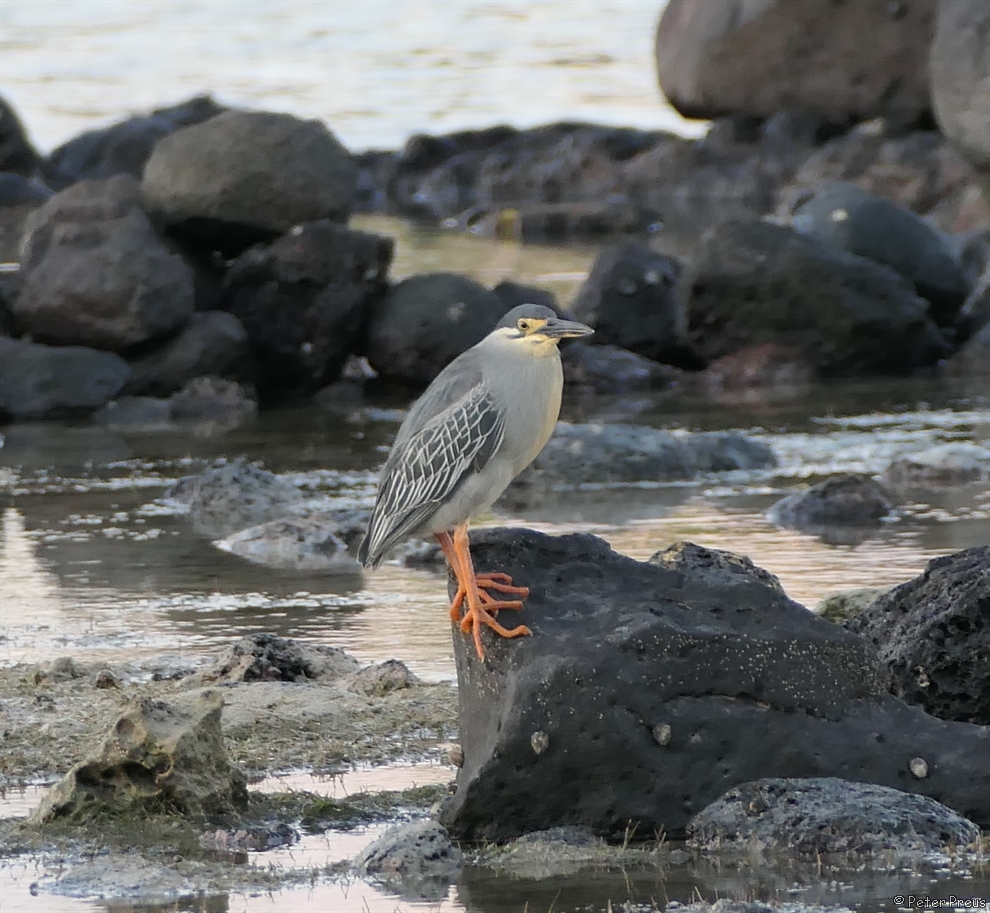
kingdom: Animalia
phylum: Chordata
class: Aves
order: Pelecaniformes
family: Ardeidae
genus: Butorides
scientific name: Butorides striata
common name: Striated heron
